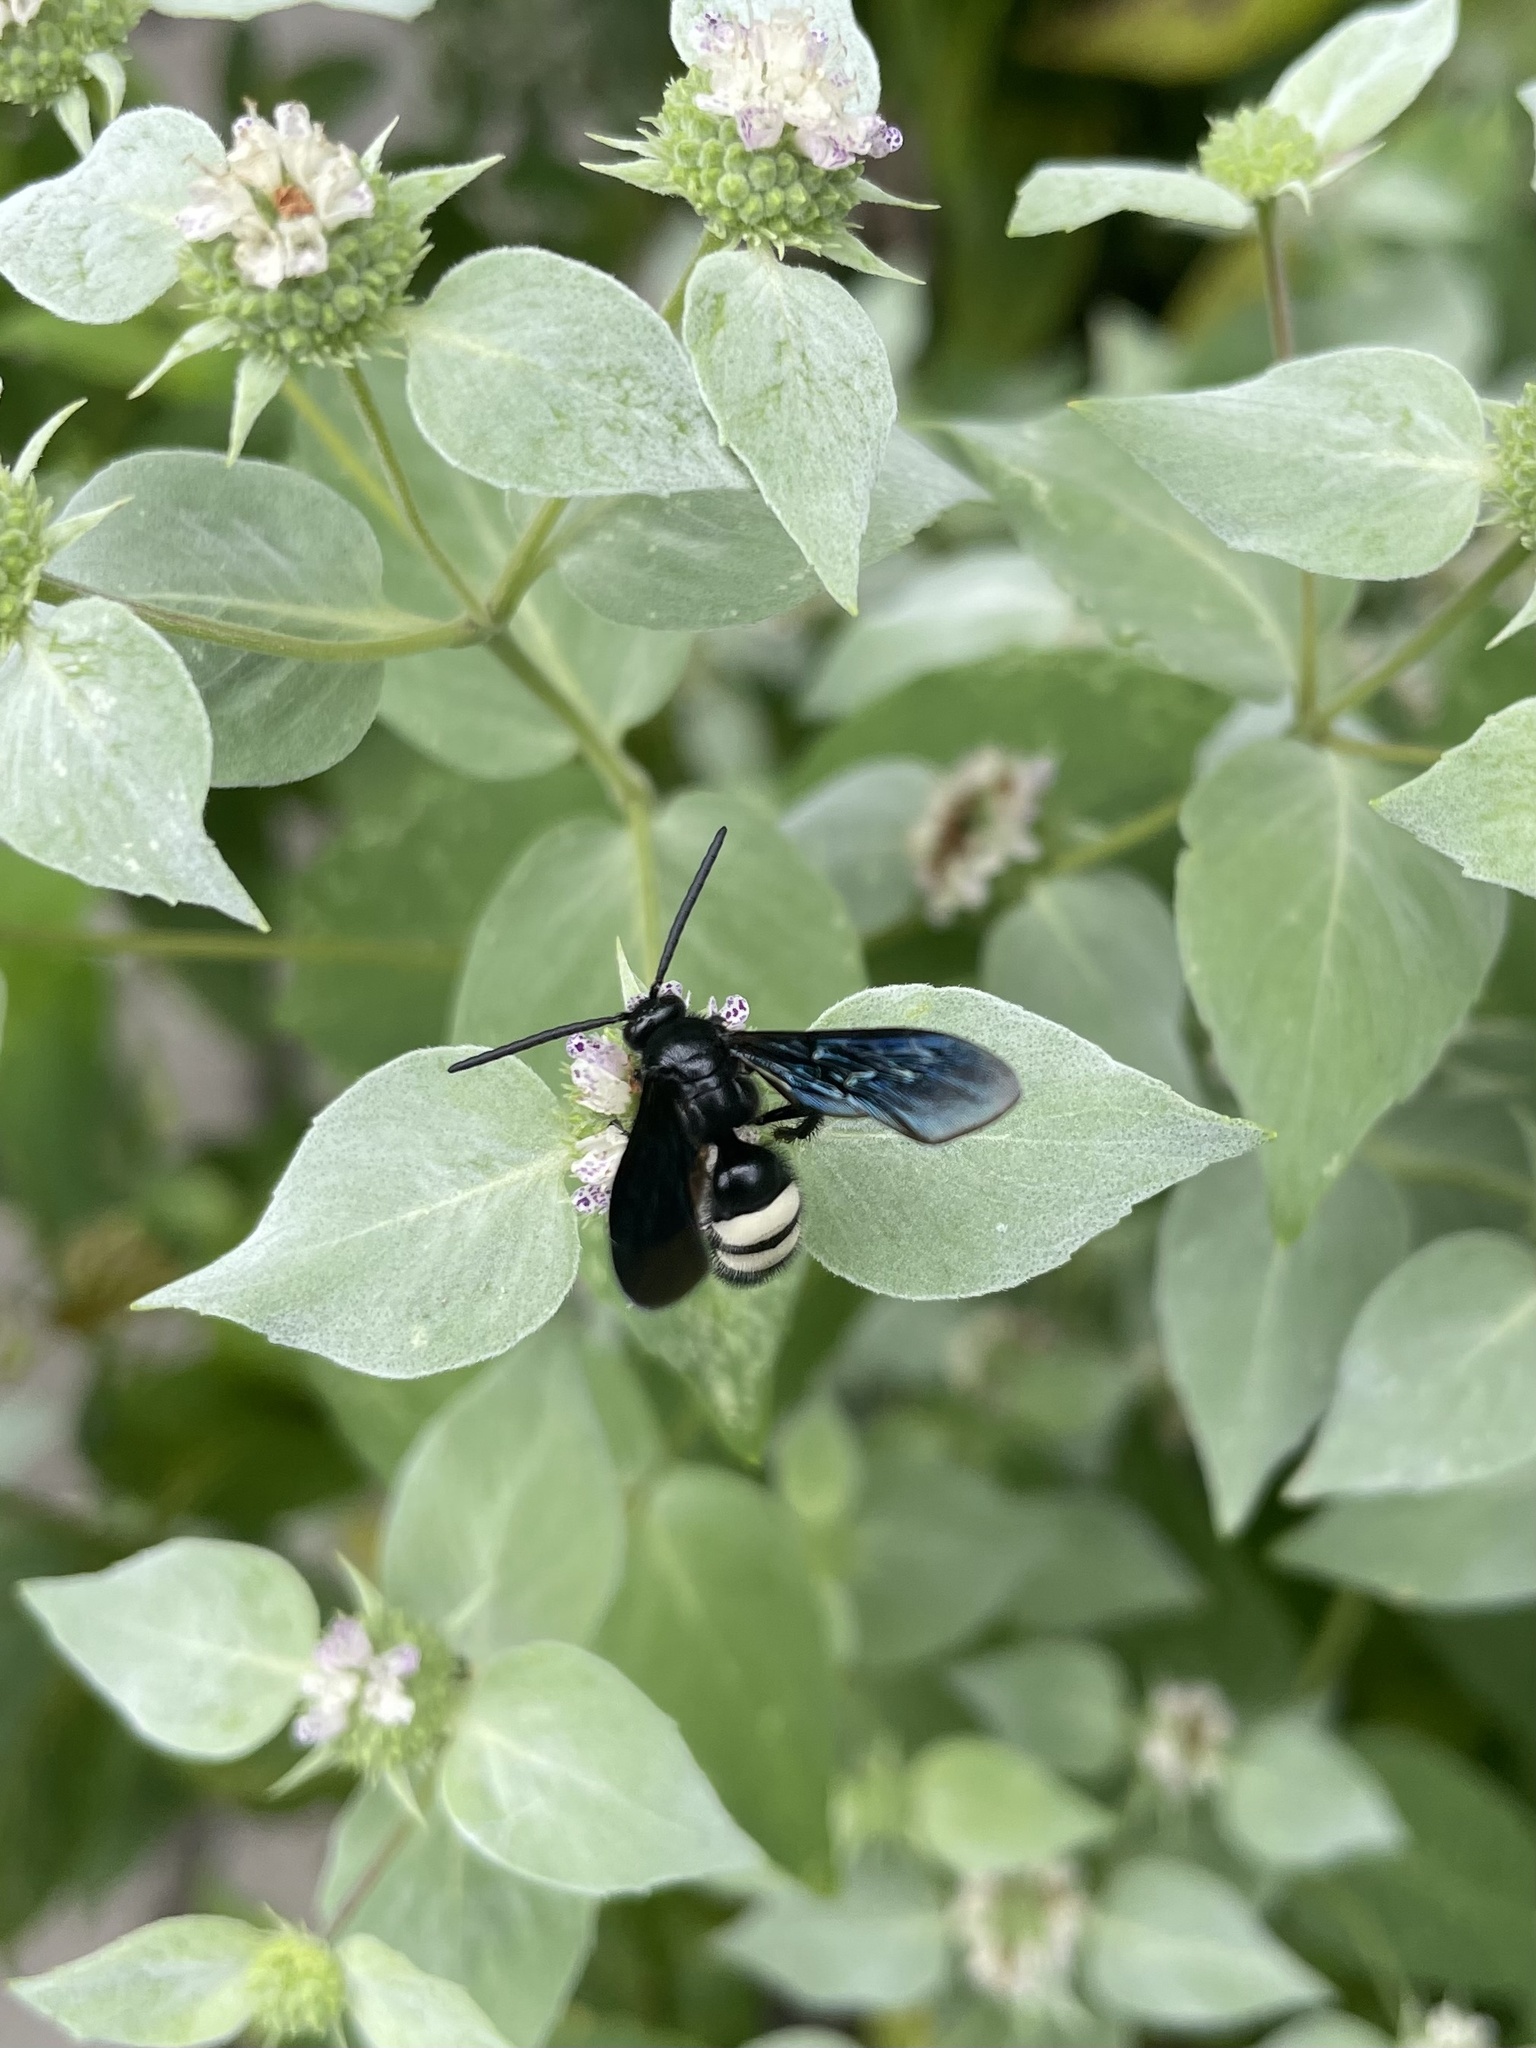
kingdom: Animalia
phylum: Arthropoda
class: Insecta
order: Hymenoptera
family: Scoliidae
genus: Scolia
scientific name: Scolia bicincta
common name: Double-banded scoliid wasp
